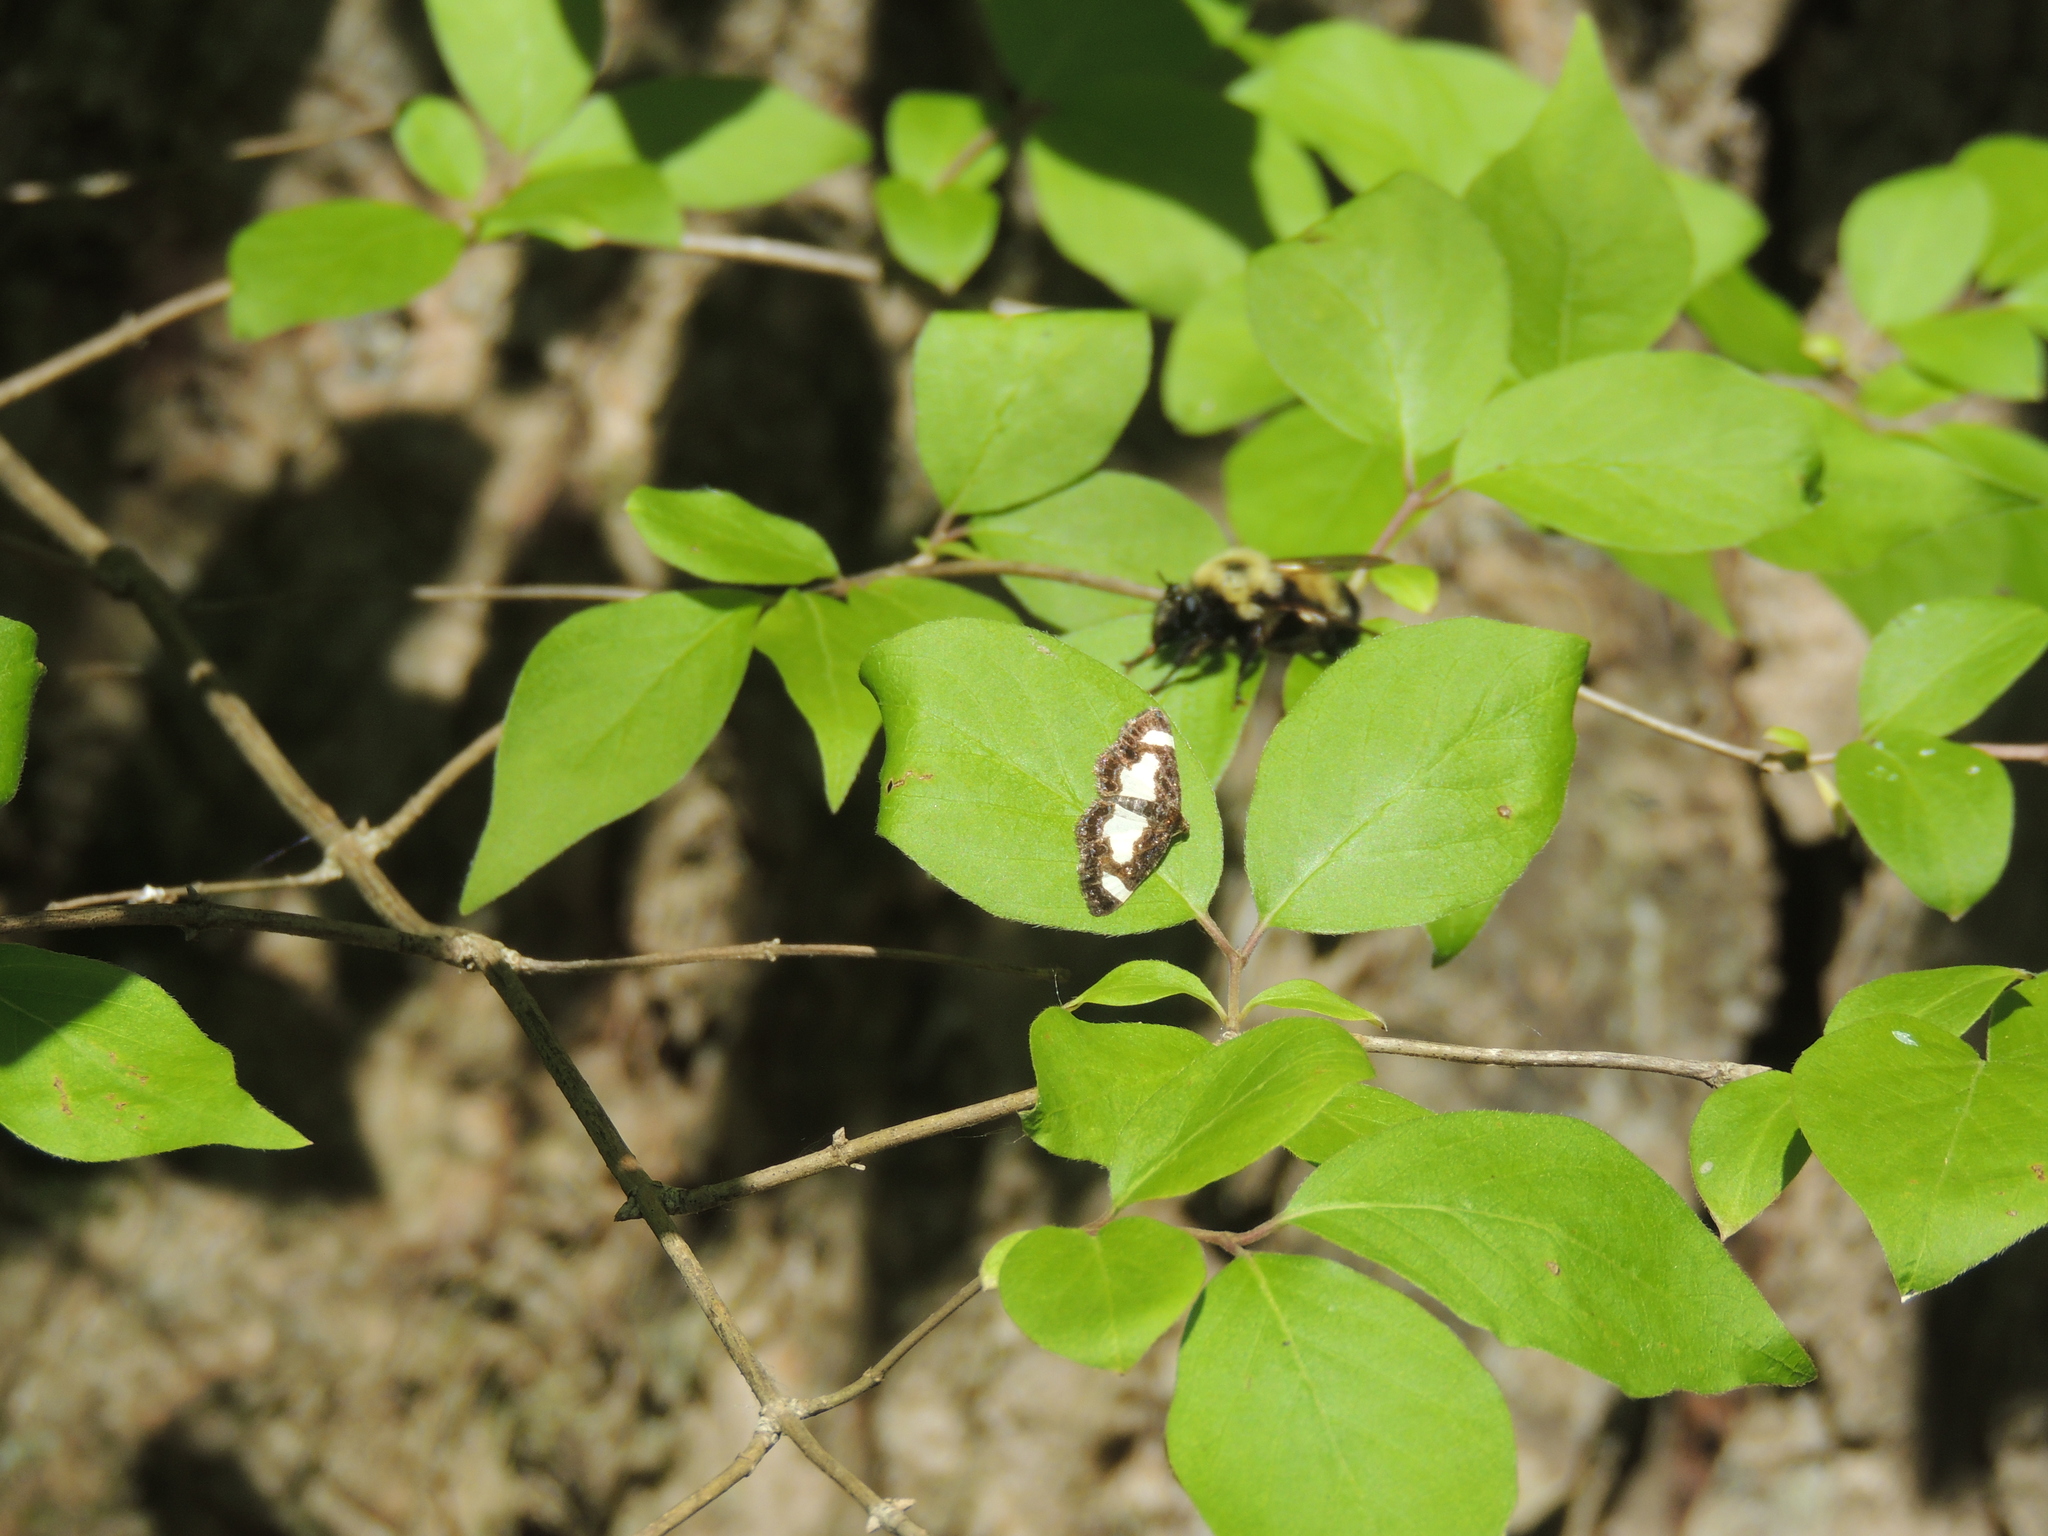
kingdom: Animalia
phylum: Arthropoda
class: Insecta
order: Lepidoptera
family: Geometridae
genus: Heliomata
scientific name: Heliomata cycladata
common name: Common spring moth
